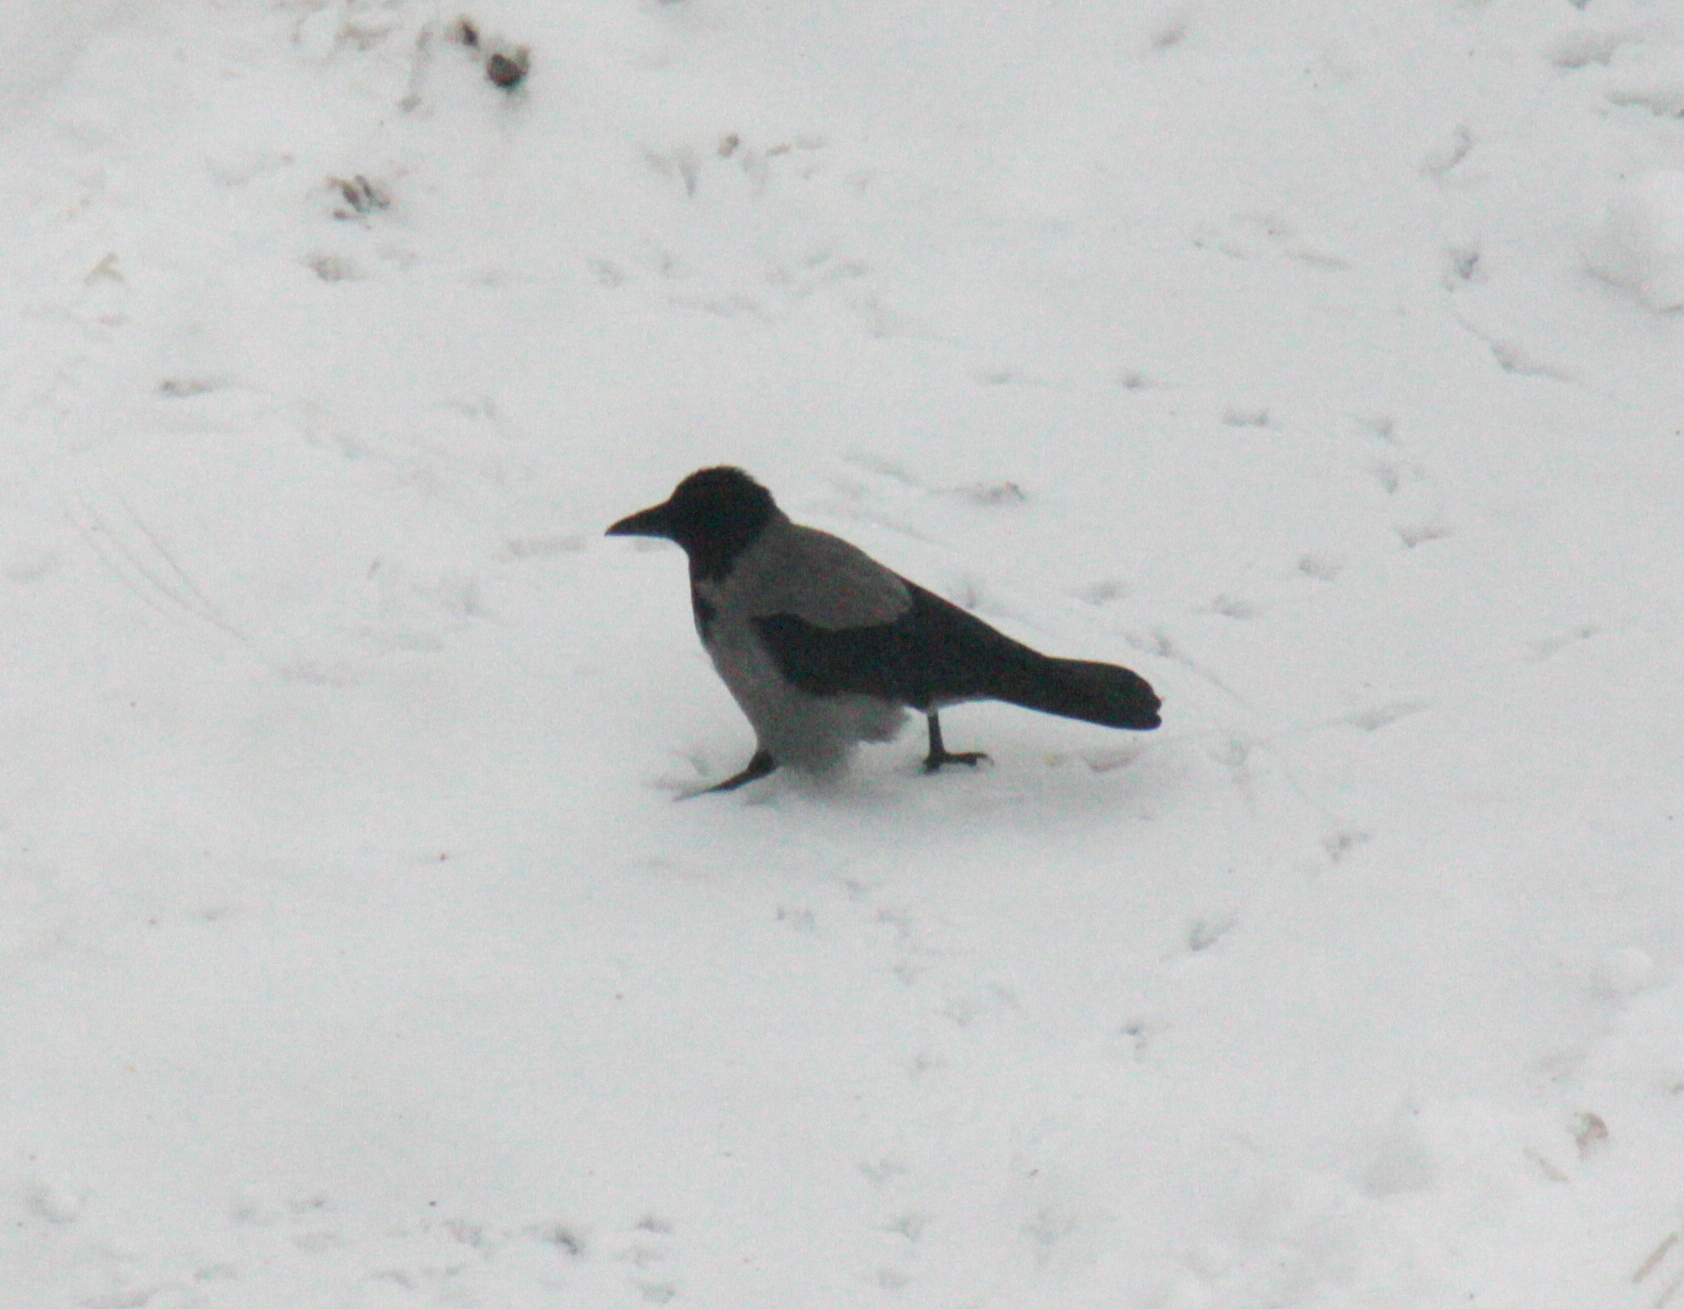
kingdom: Animalia
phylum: Chordata
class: Aves
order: Passeriformes
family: Corvidae
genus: Corvus
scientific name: Corvus cornix
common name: Hooded crow
